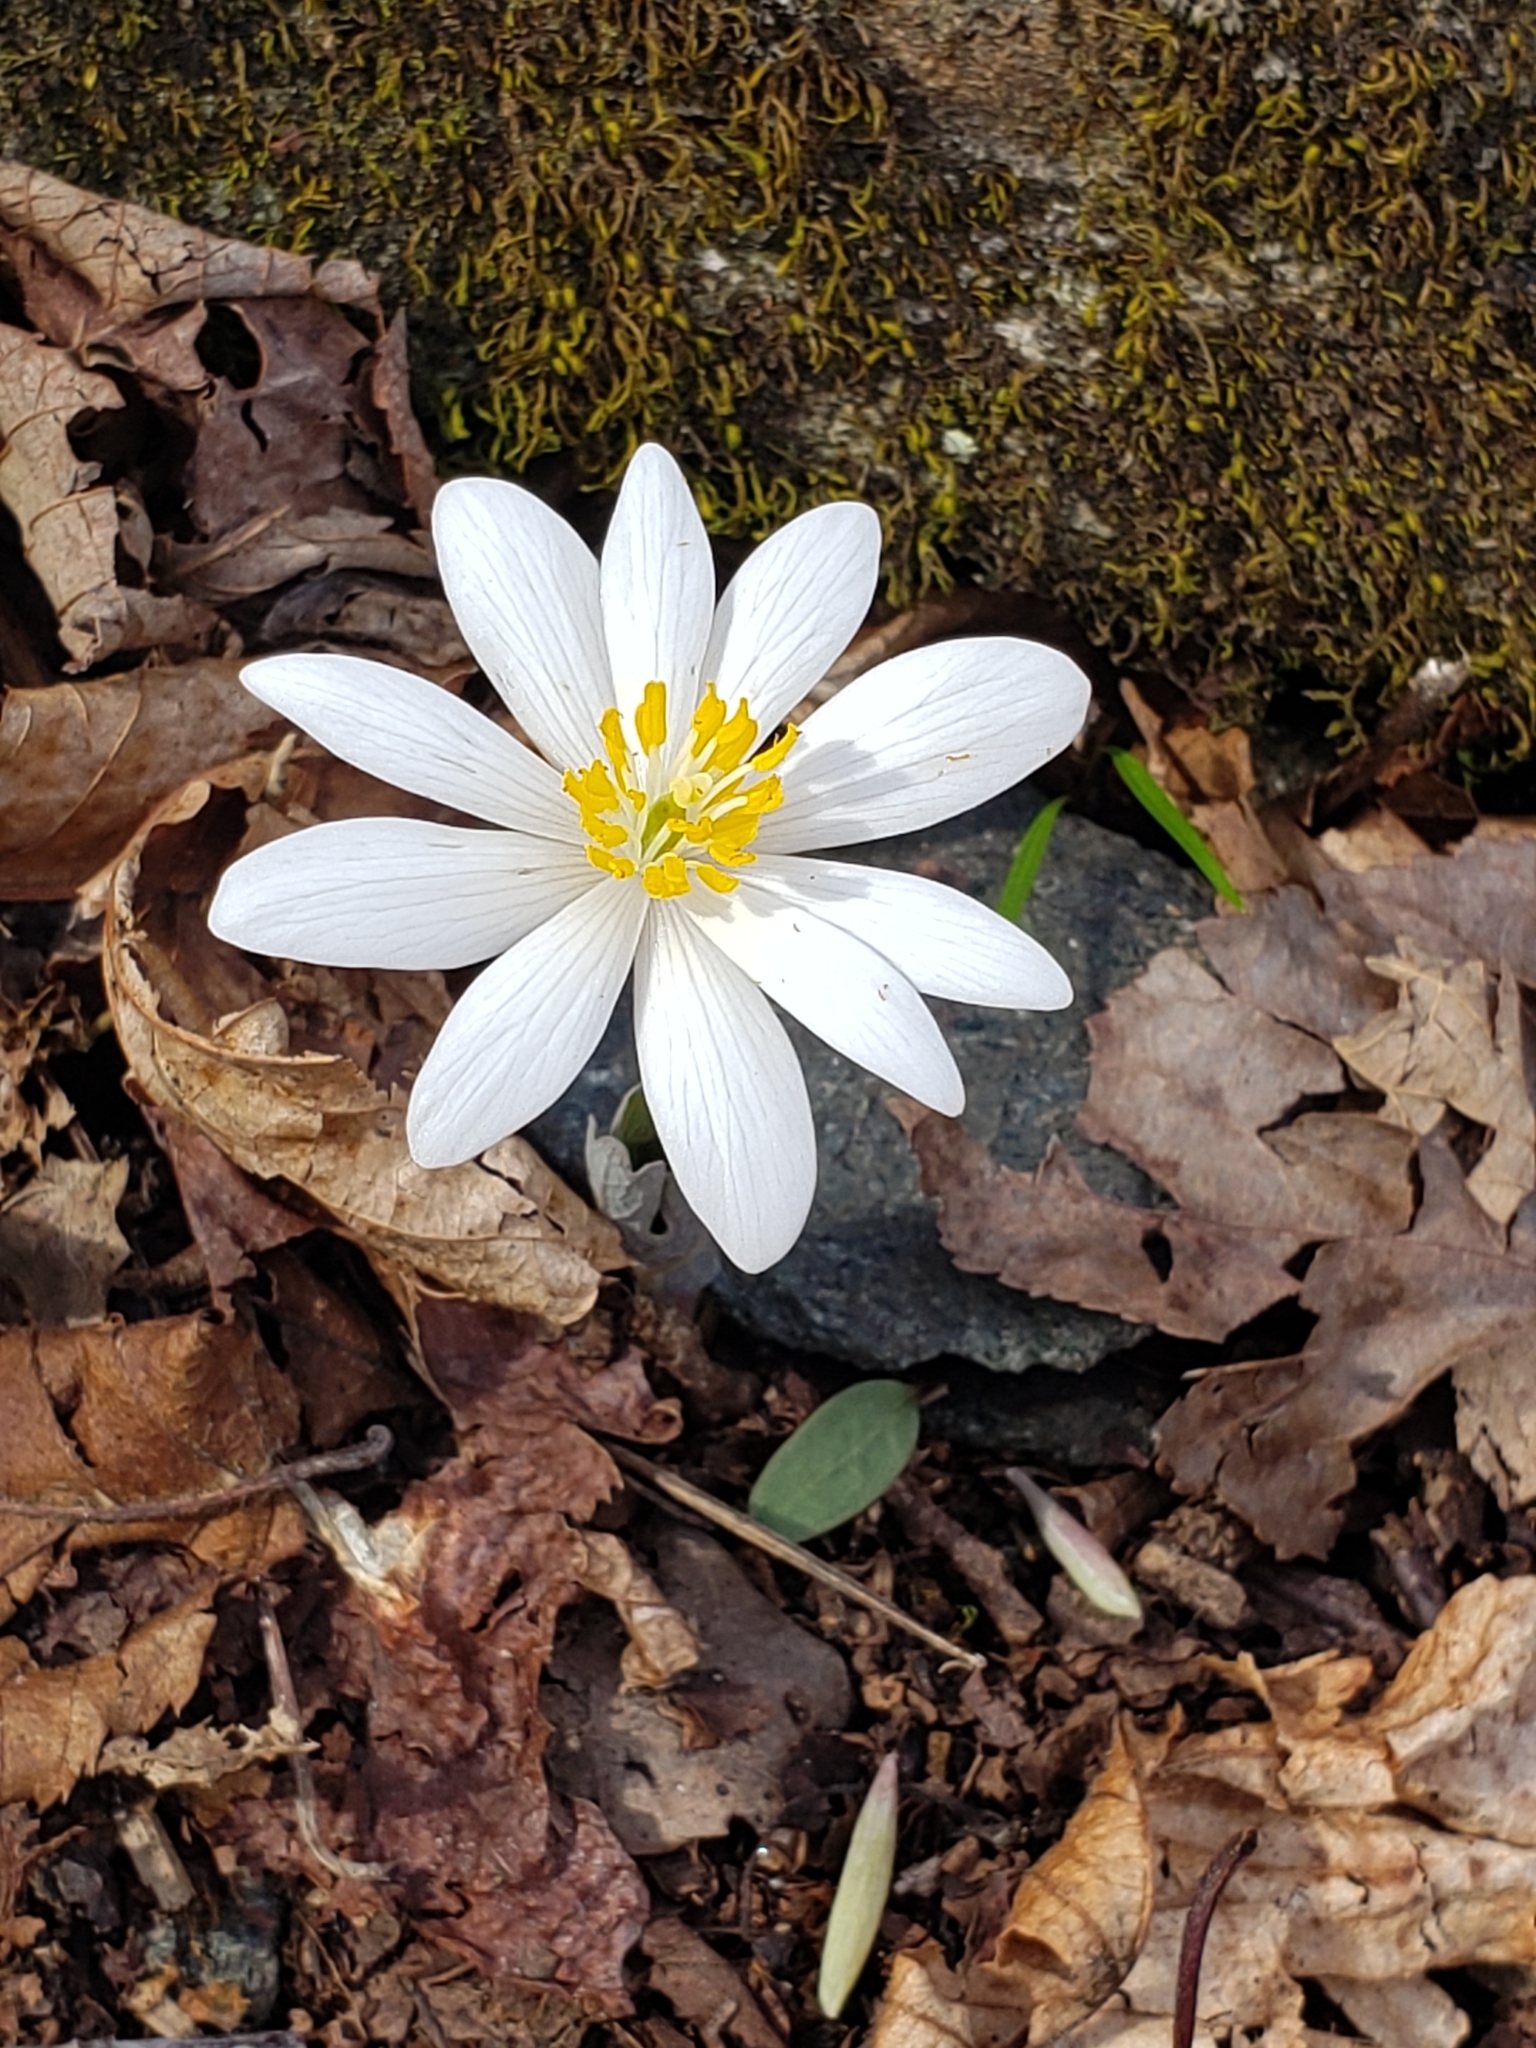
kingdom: Plantae
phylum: Tracheophyta
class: Magnoliopsida
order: Ranunculales
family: Papaveraceae
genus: Sanguinaria
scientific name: Sanguinaria canadensis
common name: Bloodroot
